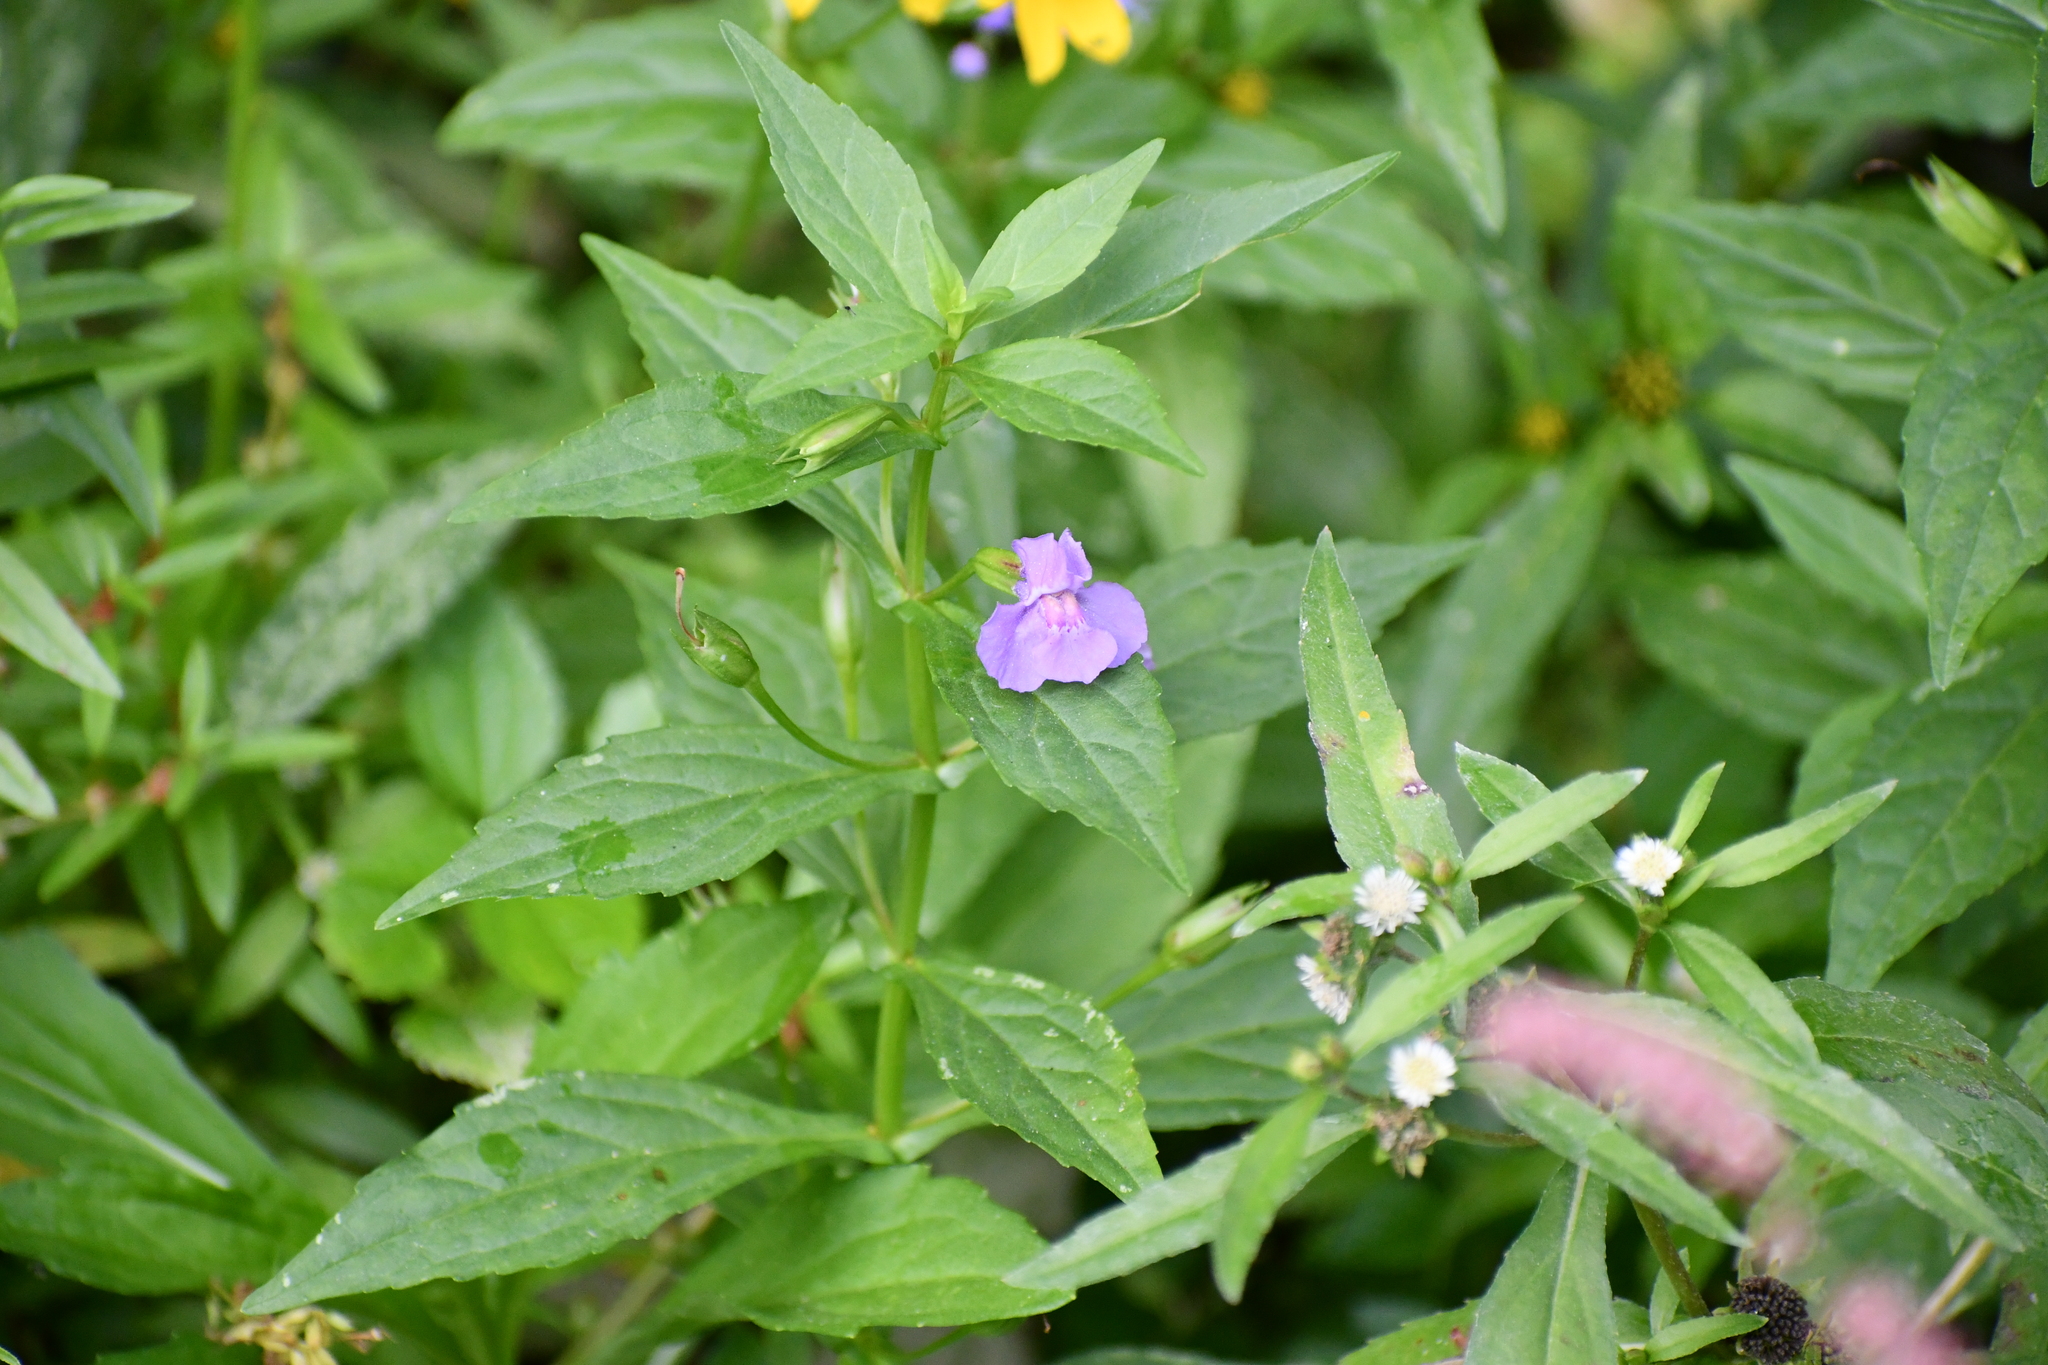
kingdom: Plantae
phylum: Tracheophyta
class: Magnoliopsida
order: Lamiales
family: Phrymaceae
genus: Mimulus
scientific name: Mimulus ringens
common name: Allegheny monkeyflower
